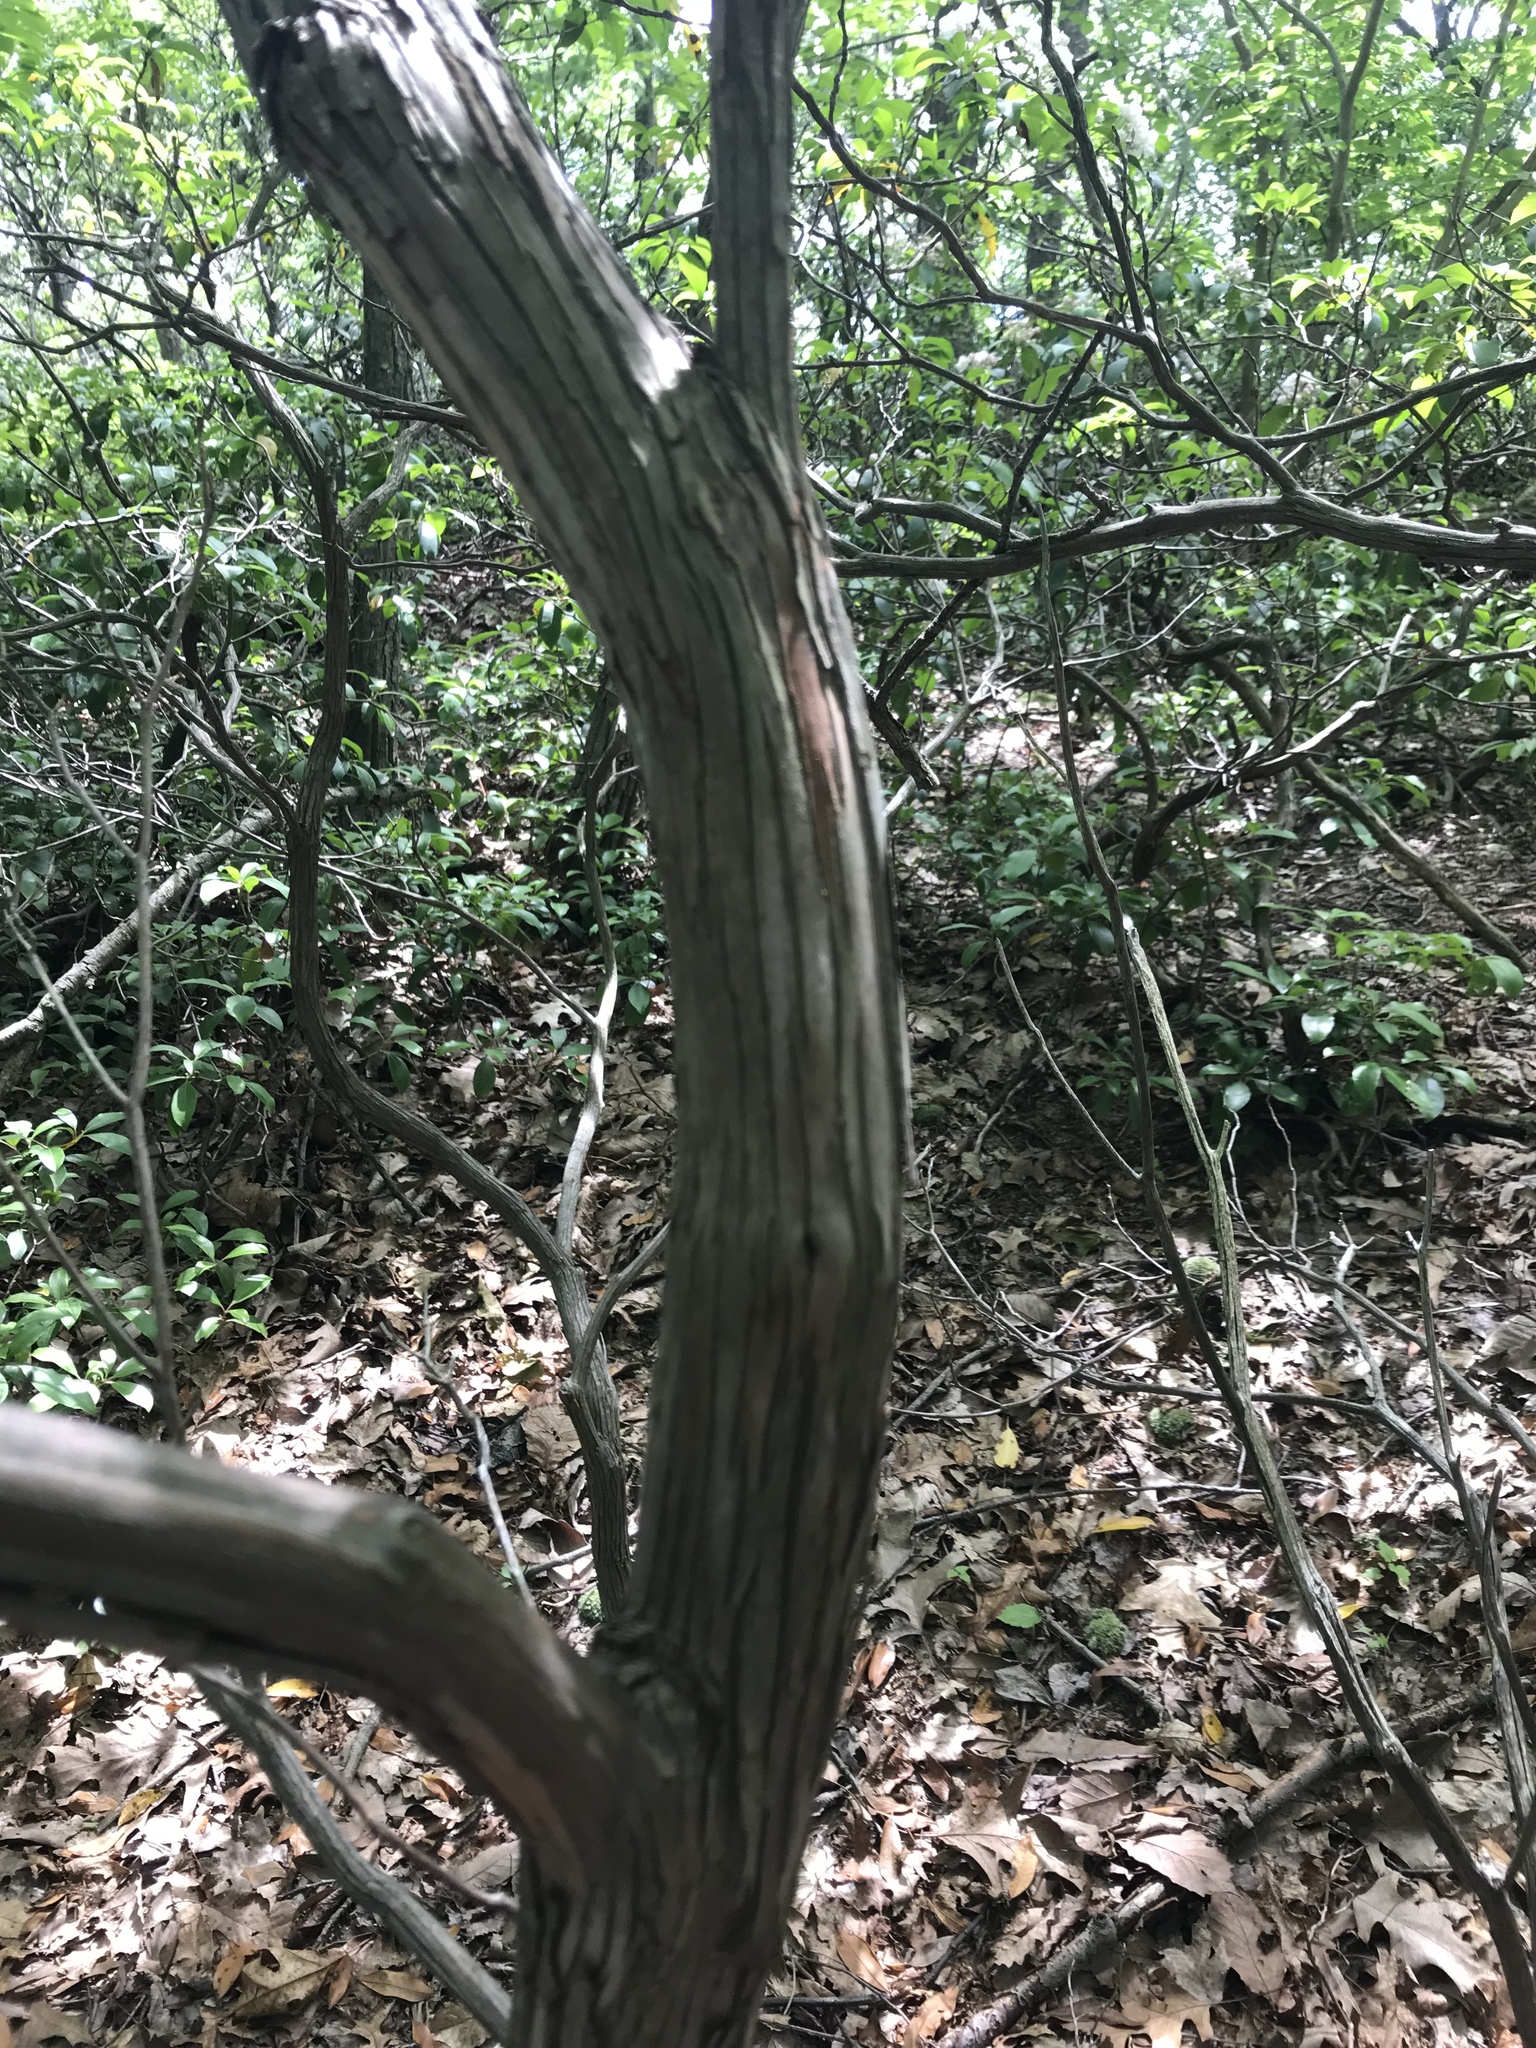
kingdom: Plantae
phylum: Tracheophyta
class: Magnoliopsida
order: Ericales
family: Ericaceae
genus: Kalmia
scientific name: Kalmia latifolia
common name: Mountain-laurel
